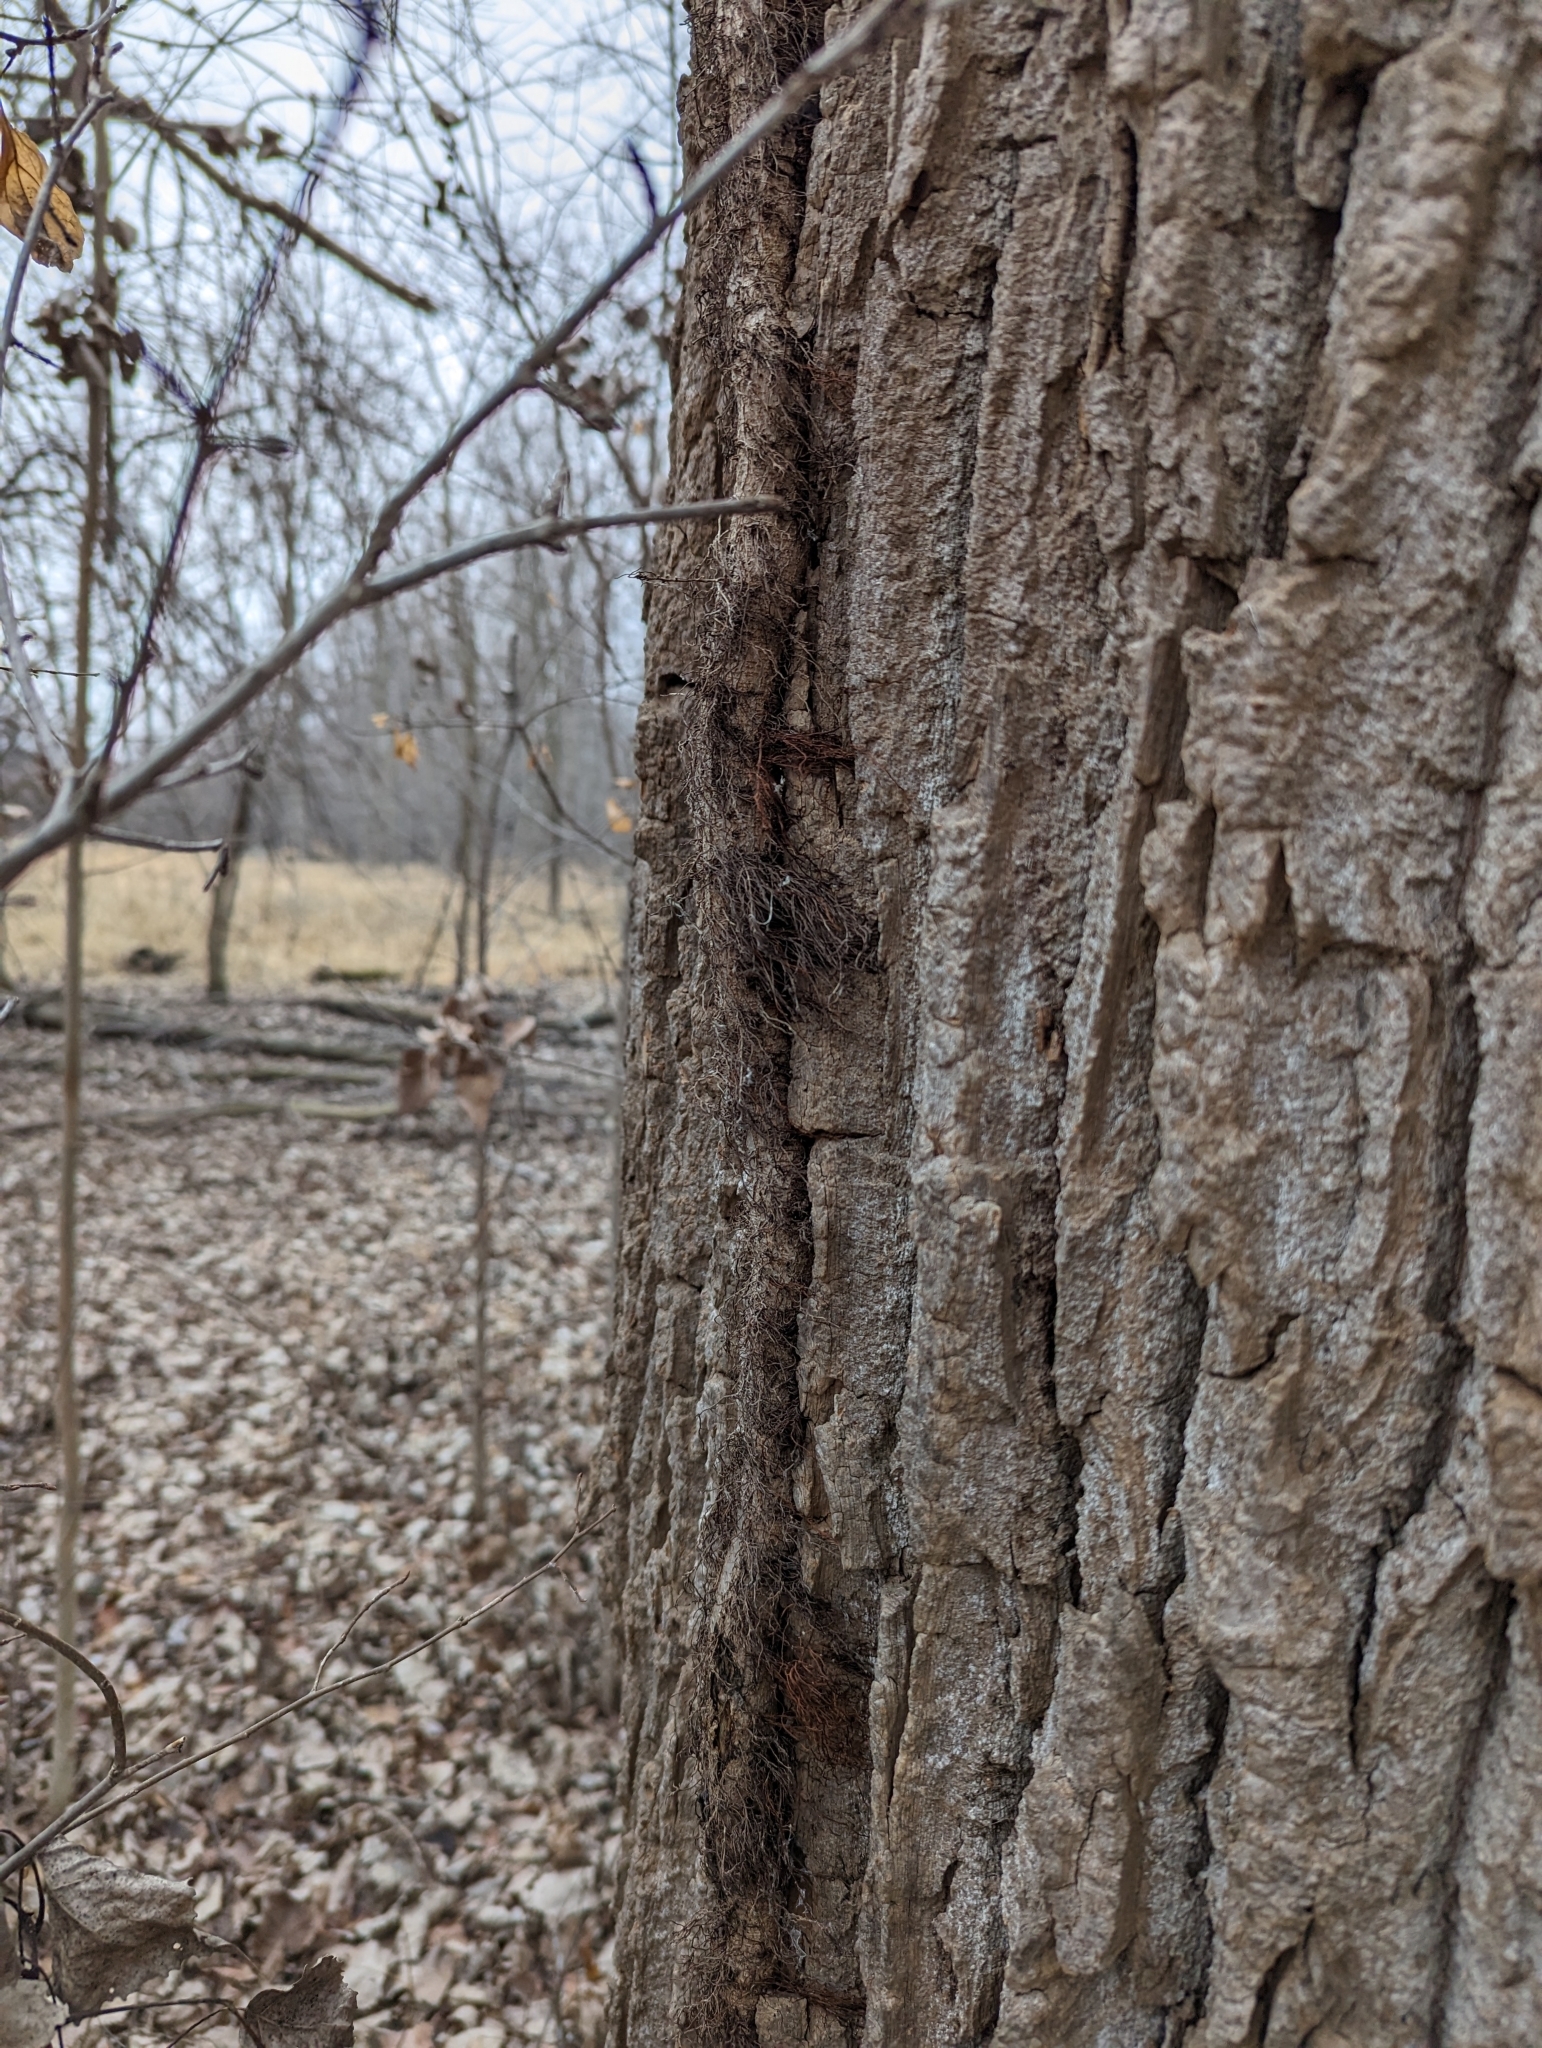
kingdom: Plantae
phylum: Tracheophyta
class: Magnoliopsida
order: Sapindales
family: Anacardiaceae
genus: Toxicodendron
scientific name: Toxicodendron radicans
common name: Poison ivy
